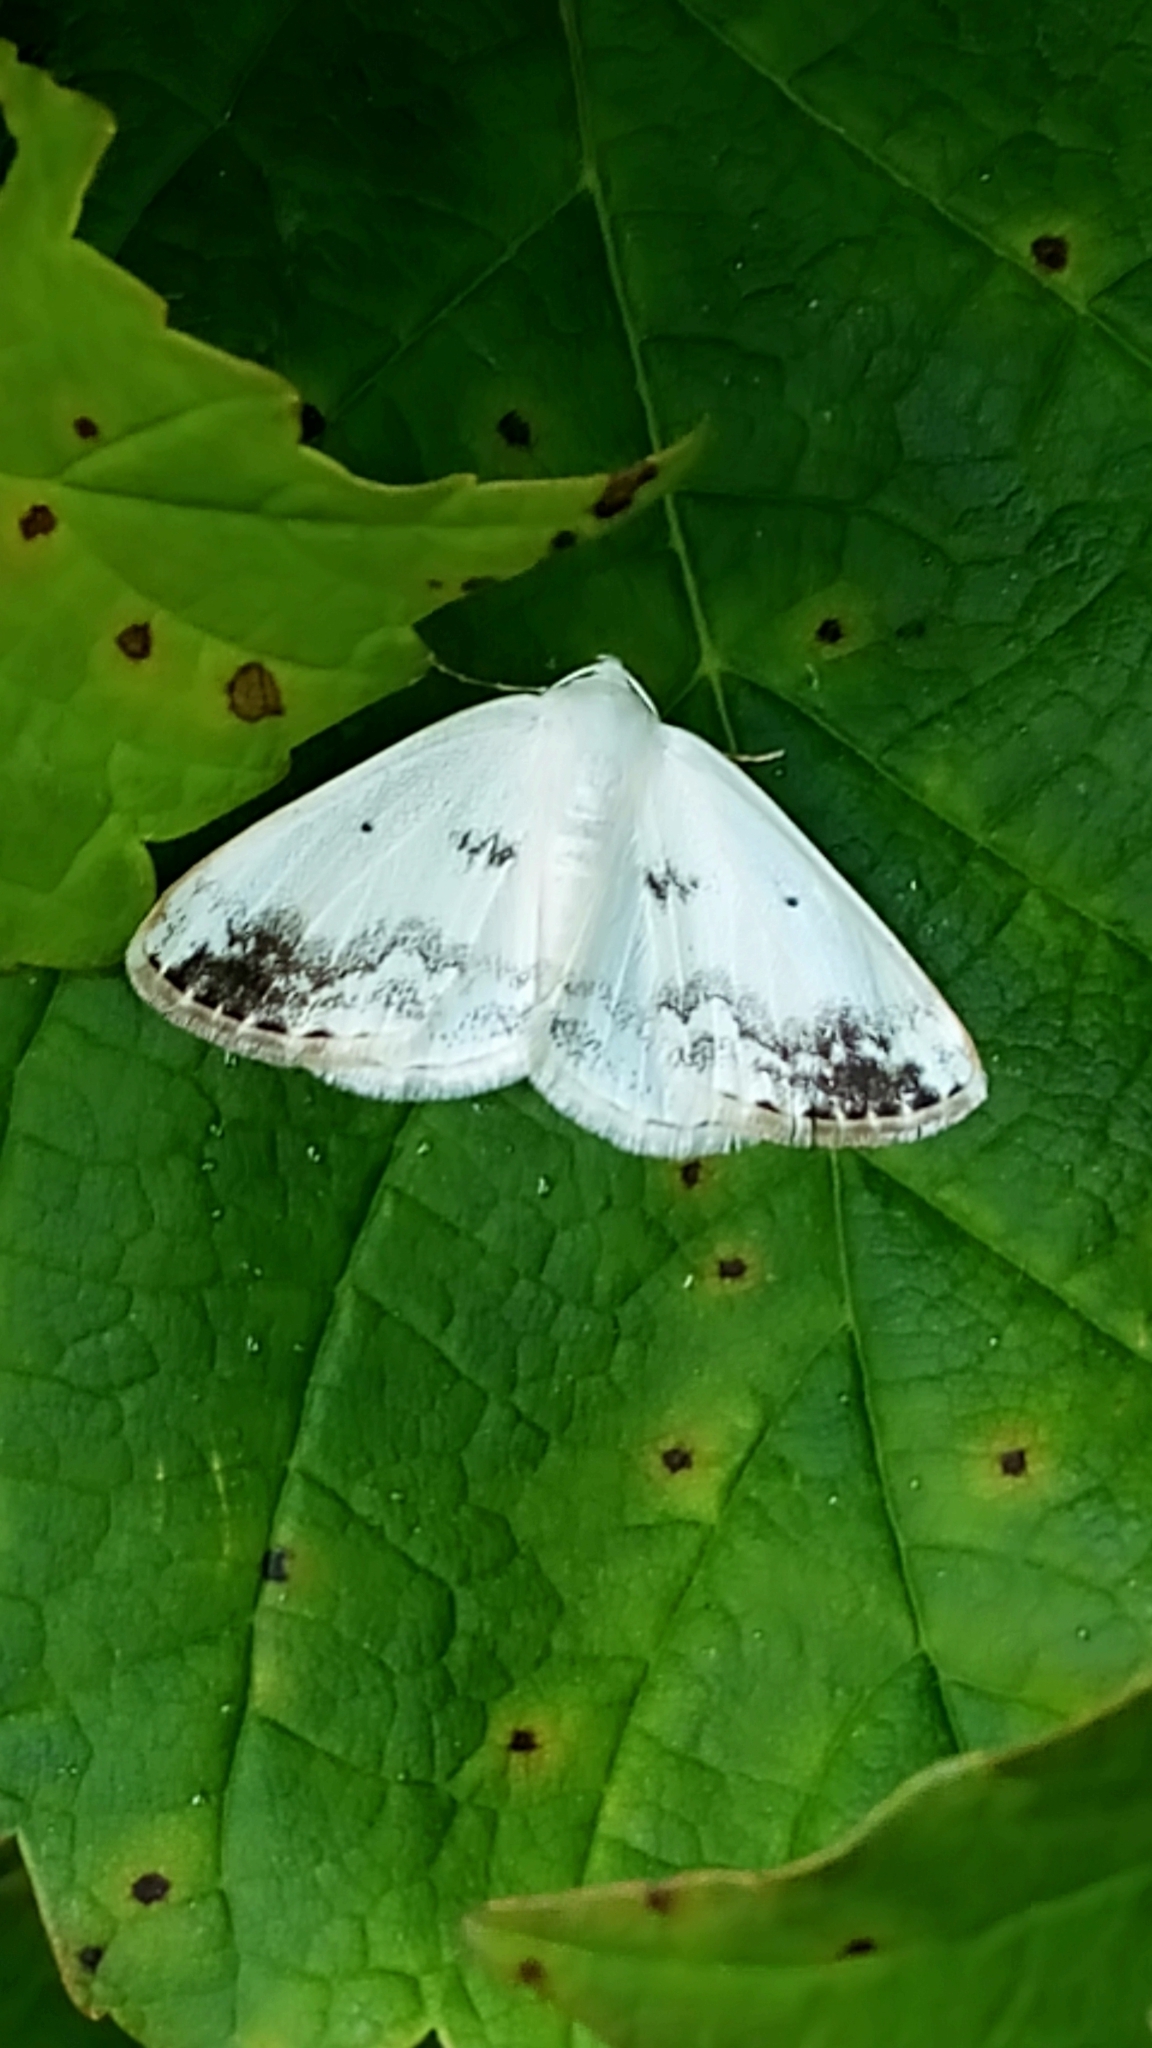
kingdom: Animalia
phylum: Arthropoda
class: Insecta
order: Lepidoptera
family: Geometridae
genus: Lomographa
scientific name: Lomographa temerata
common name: Clouded silver
